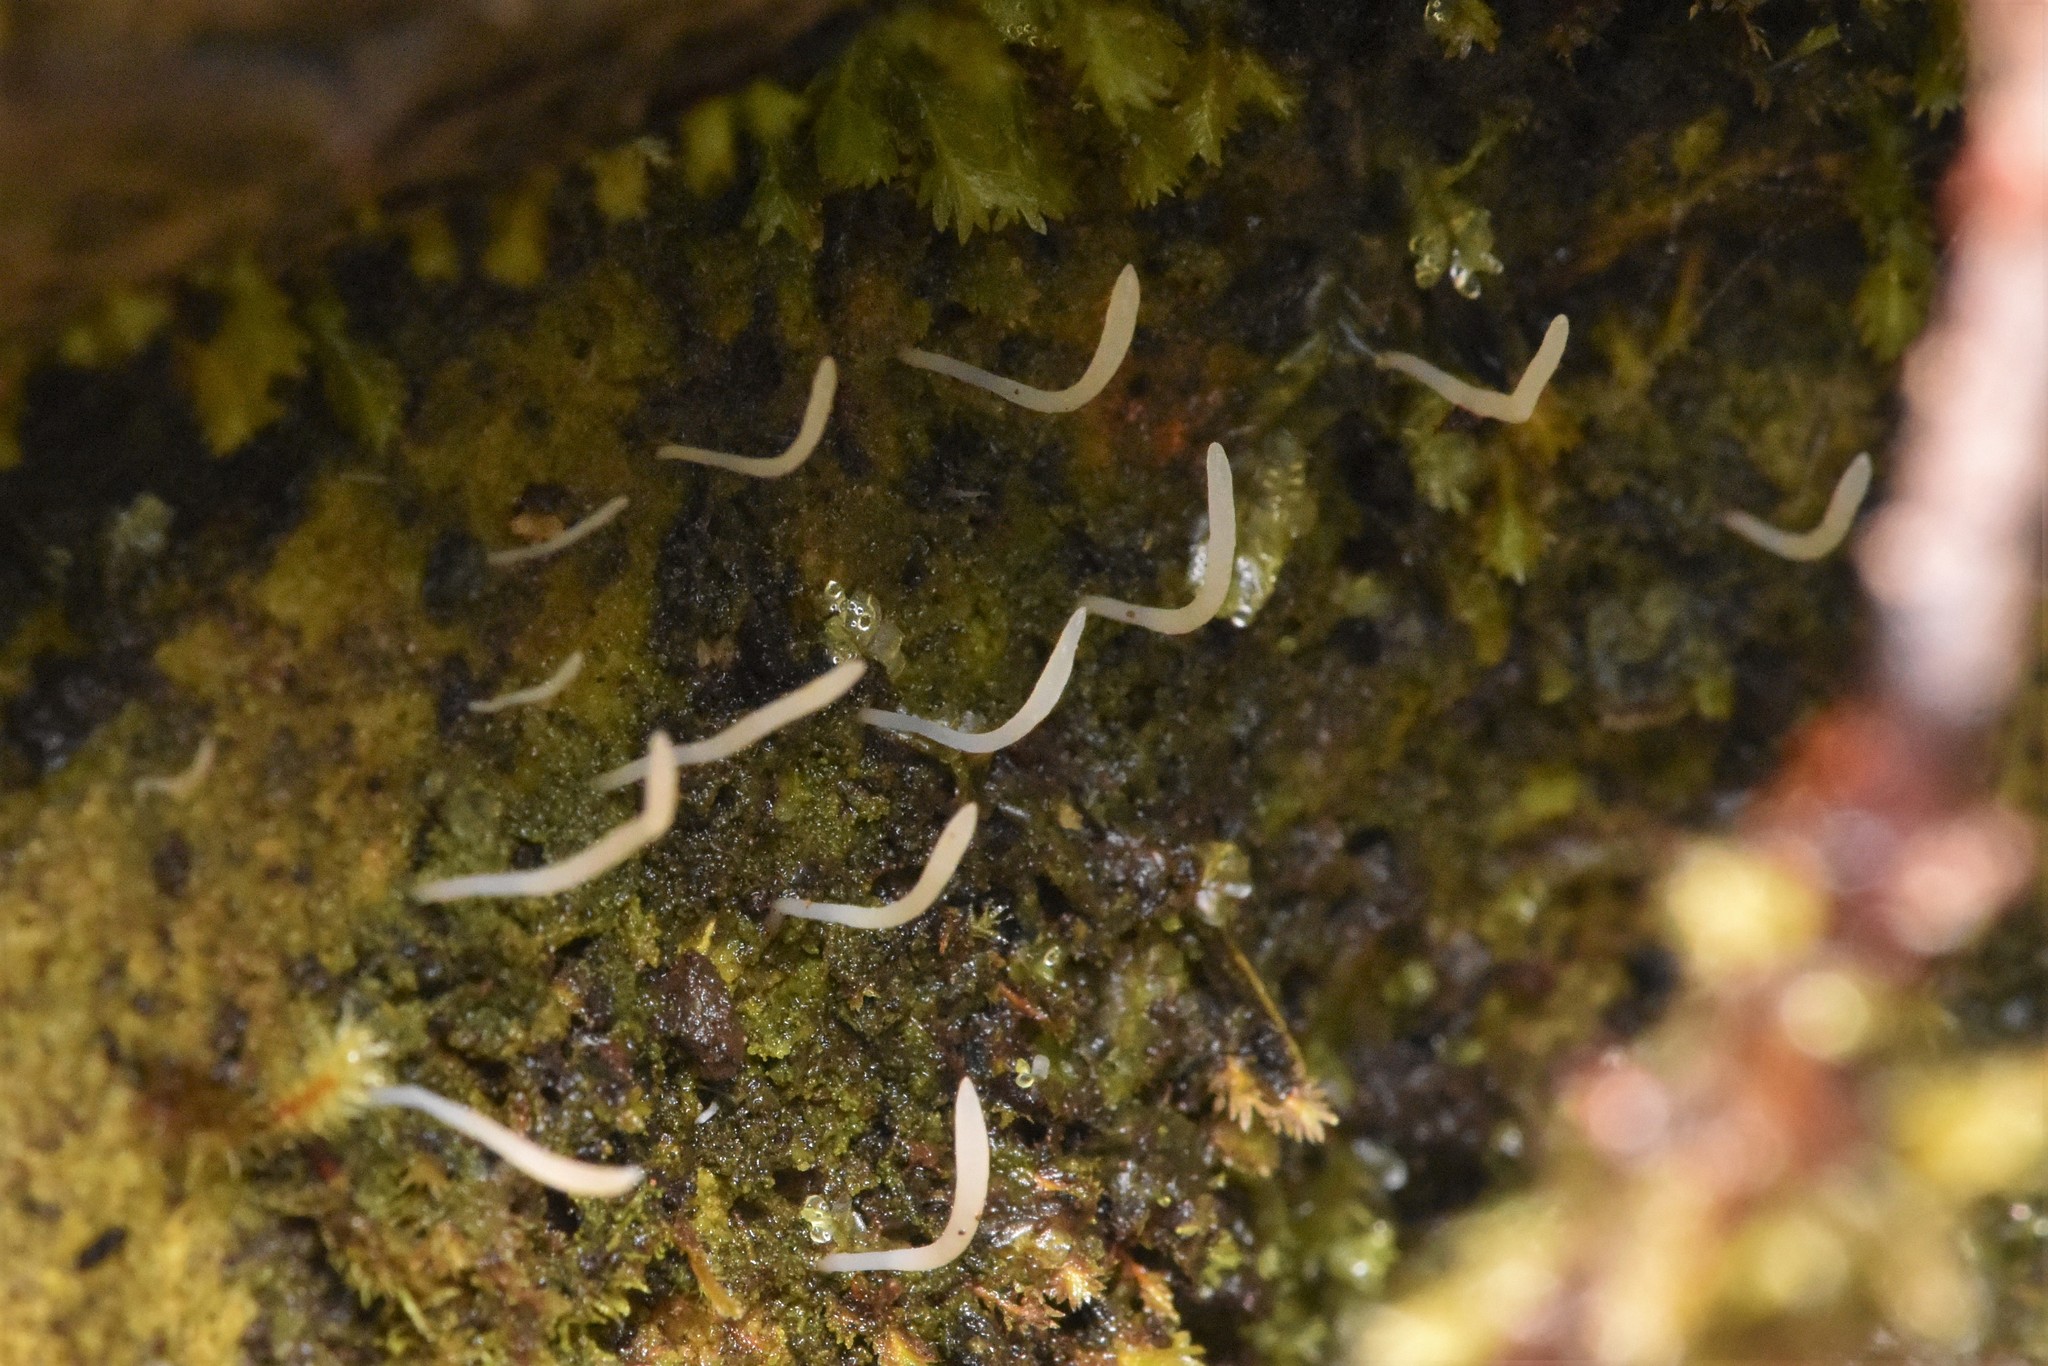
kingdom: Fungi
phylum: Basidiomycota
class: Agaricomycetes
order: Cantharellales
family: Hydnaceae
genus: Multiclavula
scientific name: Multiclavula mucida
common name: White green-algae coral
